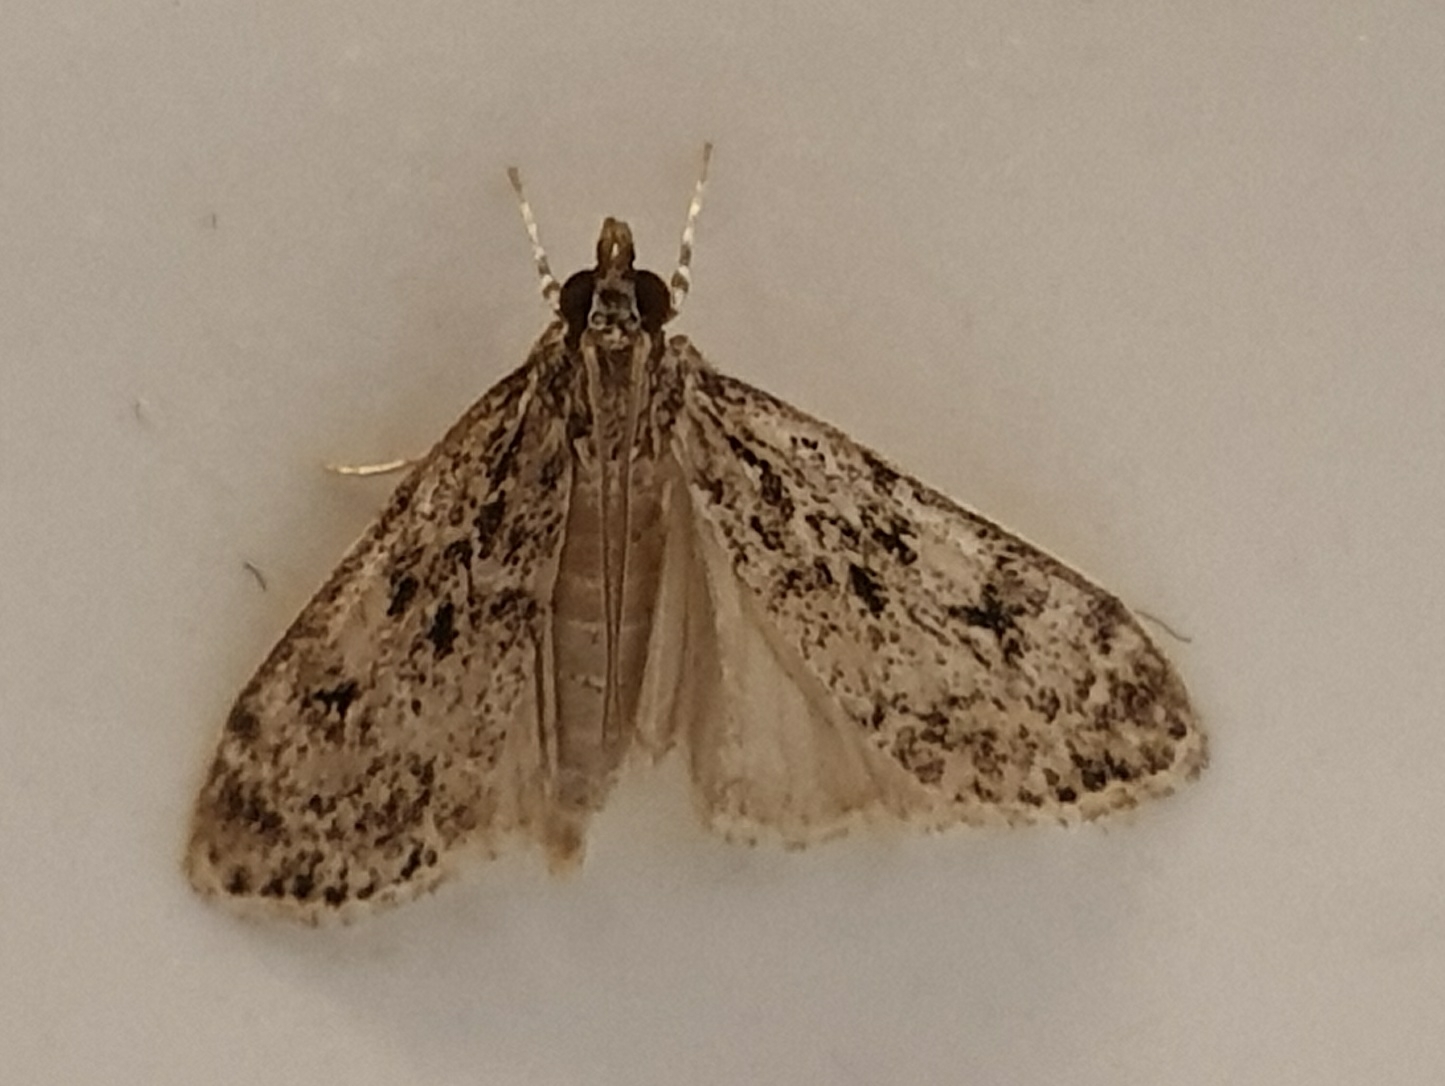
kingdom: Animalia
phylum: Arthropoda
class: Insecta
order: Lepidoptera
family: Crambidae
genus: Eudonia
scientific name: Eudonia truncicolella
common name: Ground-moss grey
